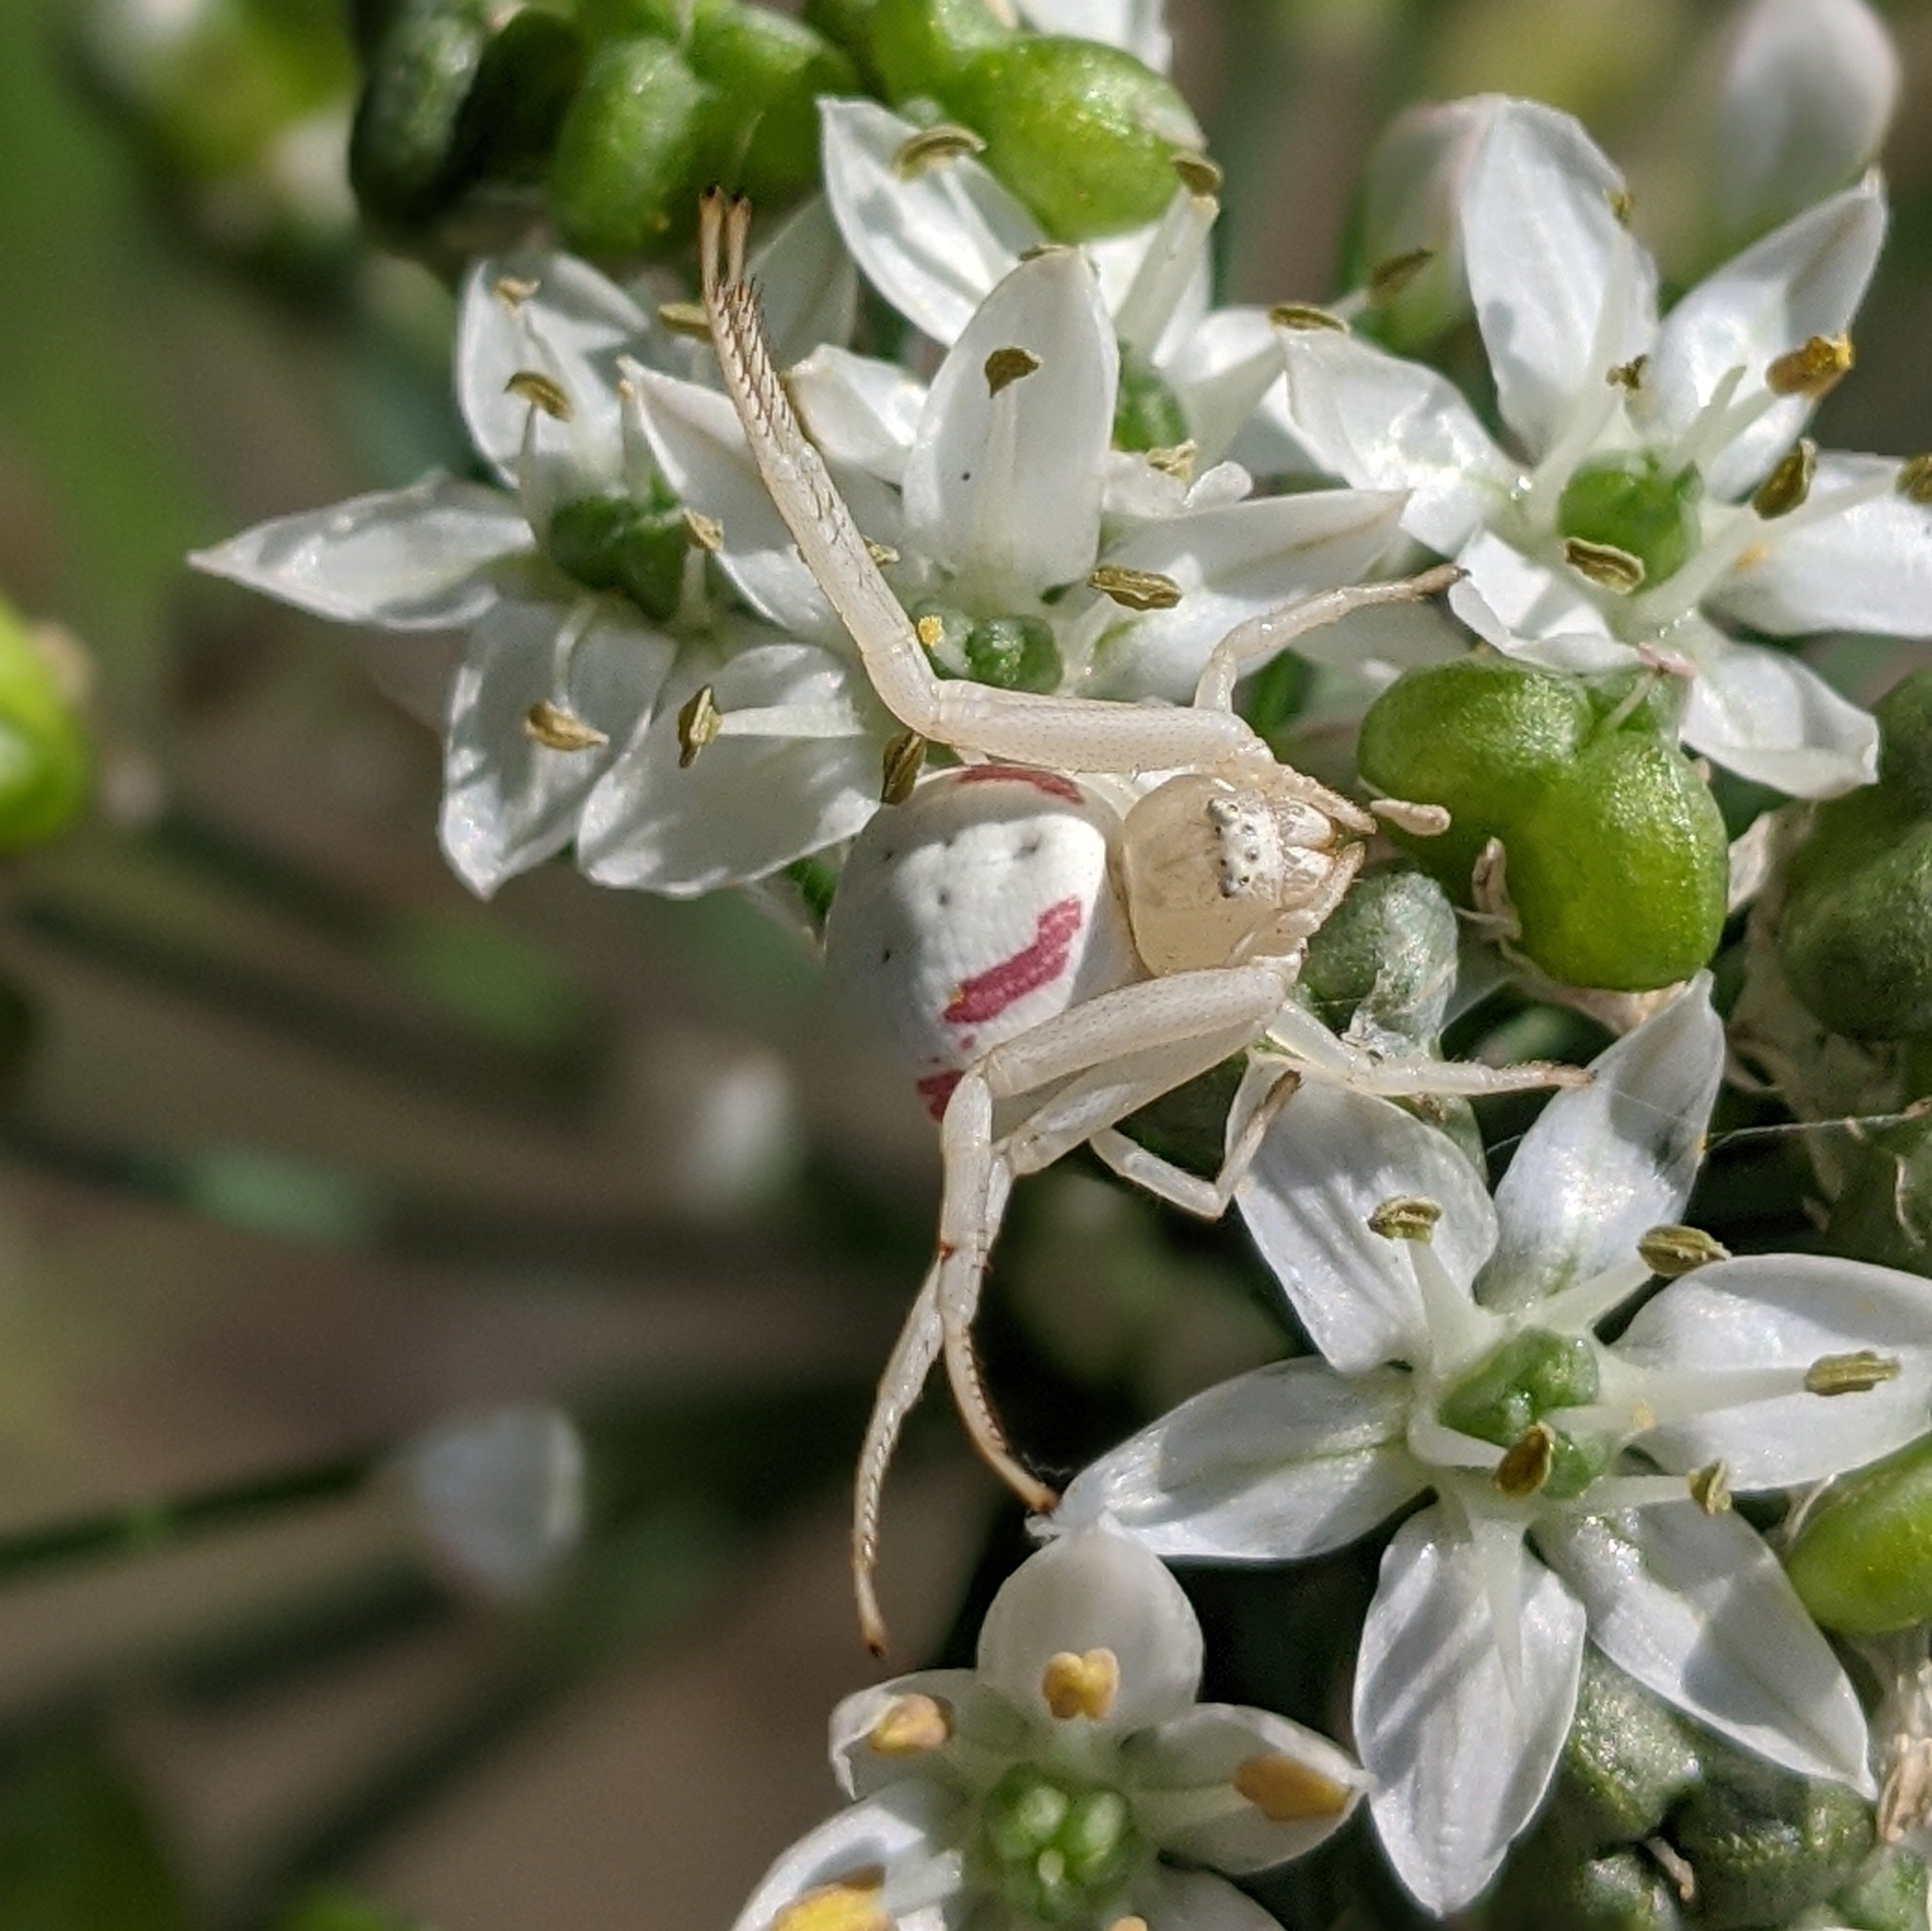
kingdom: Animalia
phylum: Arthropoda
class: Arachnida
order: Araneae
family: Thomisidae
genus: Misumena
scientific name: Misumena vatia
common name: Goldenrod crab spider
